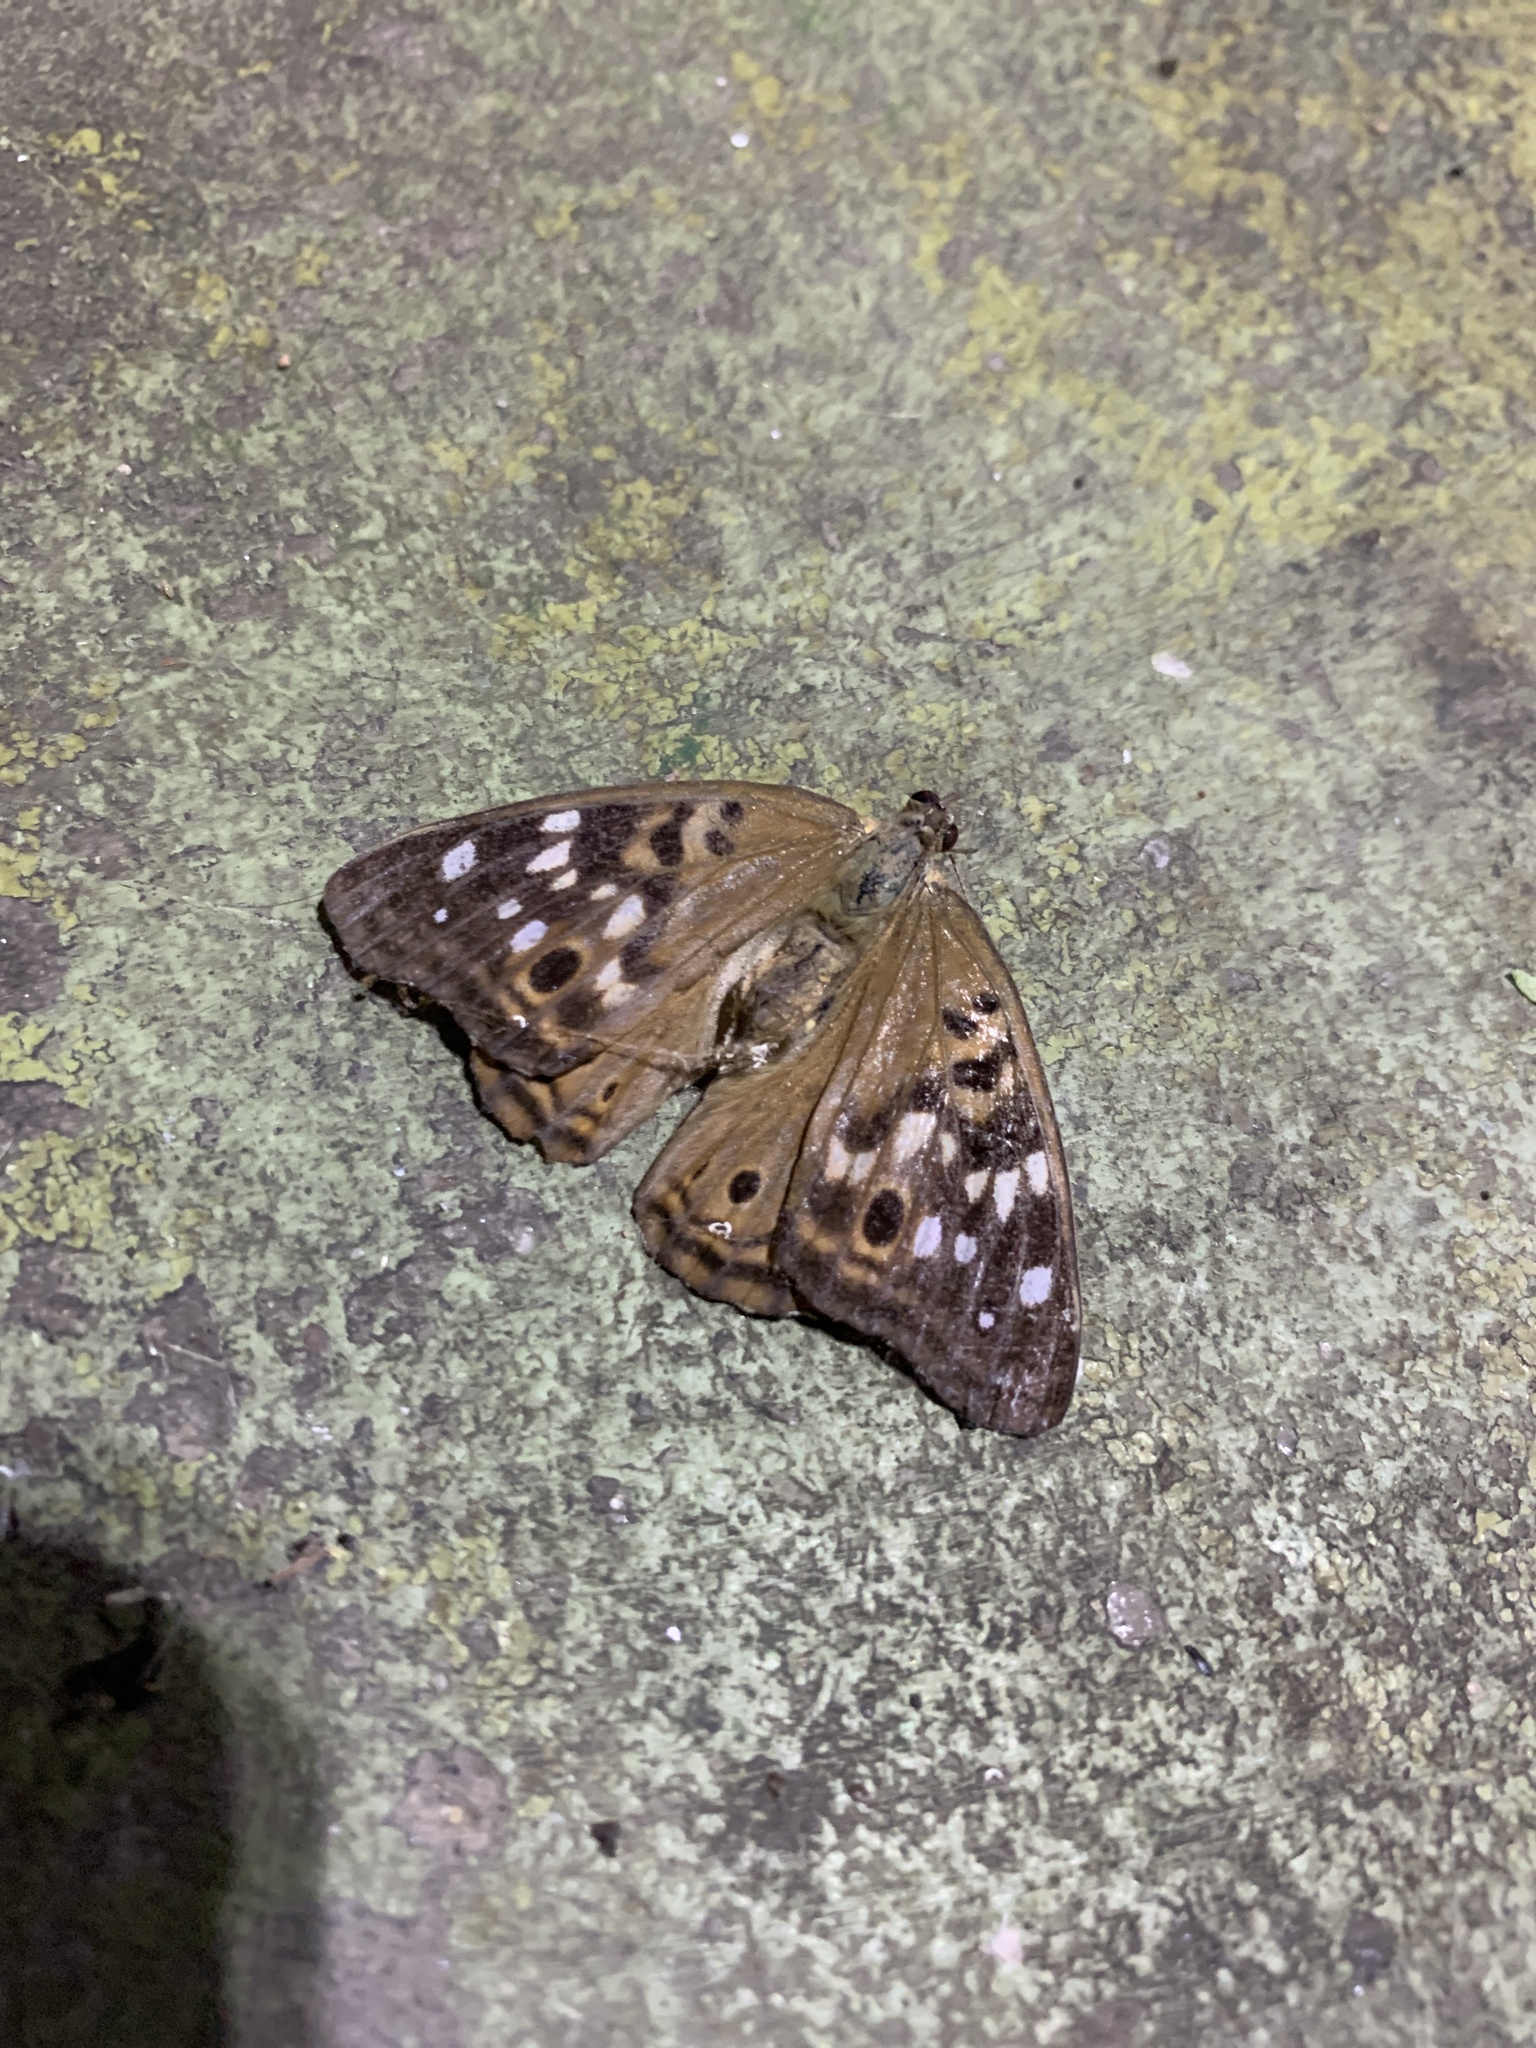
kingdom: Animalia
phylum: Arthropoda
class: Insecta
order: Lepidoptera
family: Nymphalidae
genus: Asterocampa
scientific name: Asterocampa celtis
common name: Hackberry emperor
